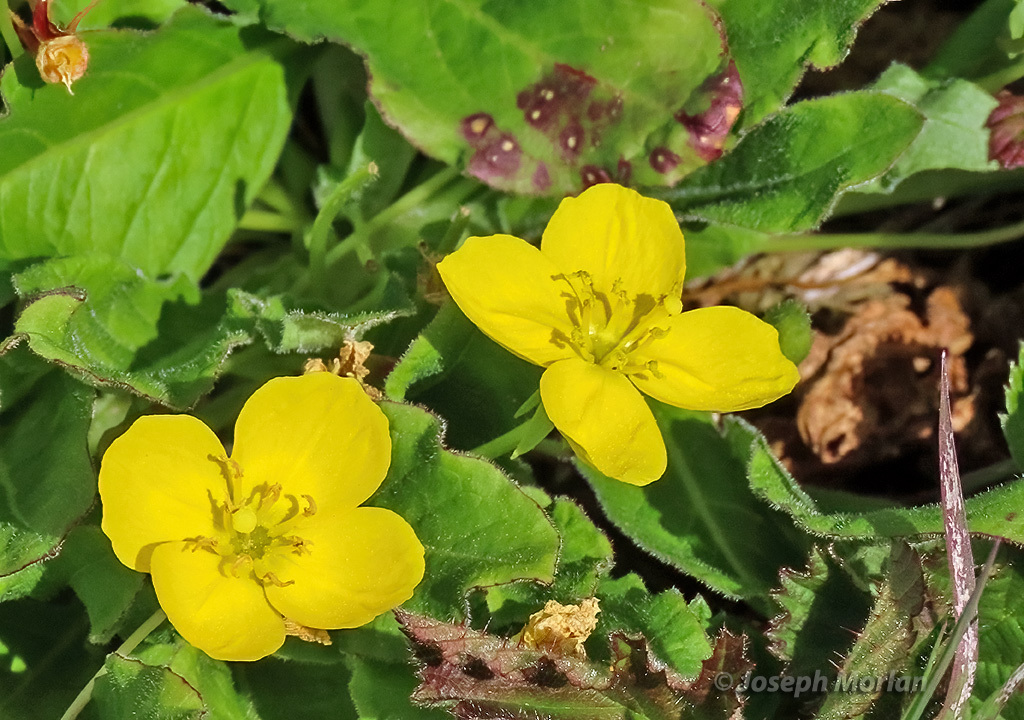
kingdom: Plantae
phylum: Tracheophyta
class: Magnoliopsida
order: Myrtales
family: Onagraceae
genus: Taraxia
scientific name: Taraxia ovata
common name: Goldeneggs
